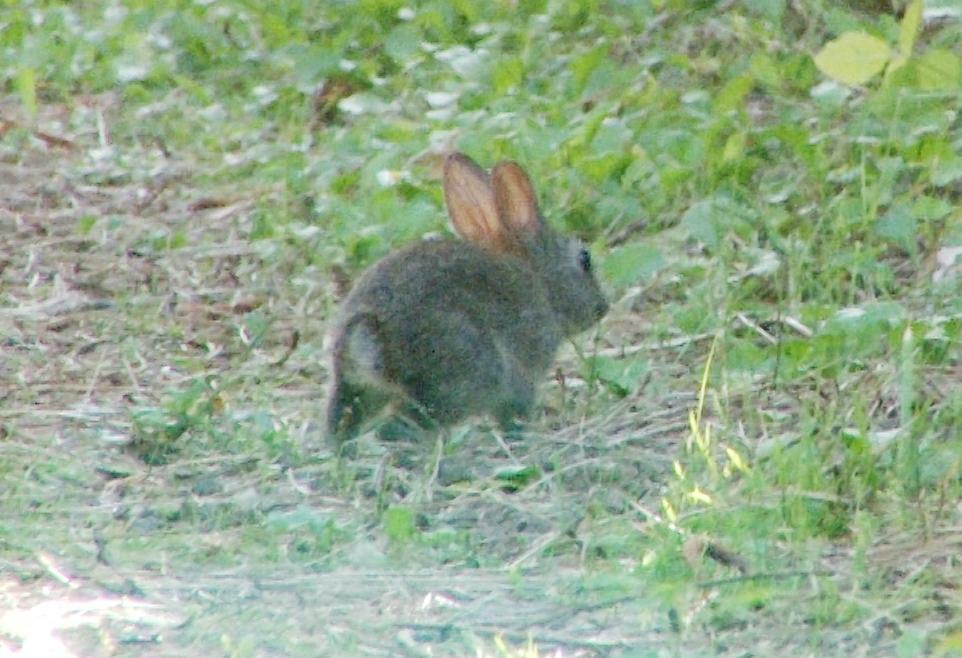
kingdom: Animalia
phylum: Chordata
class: Mammalia
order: Lagomorpha
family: Leporidae
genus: Sylvilagus
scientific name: Sylvilagus bachmani
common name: Brush rabbit
